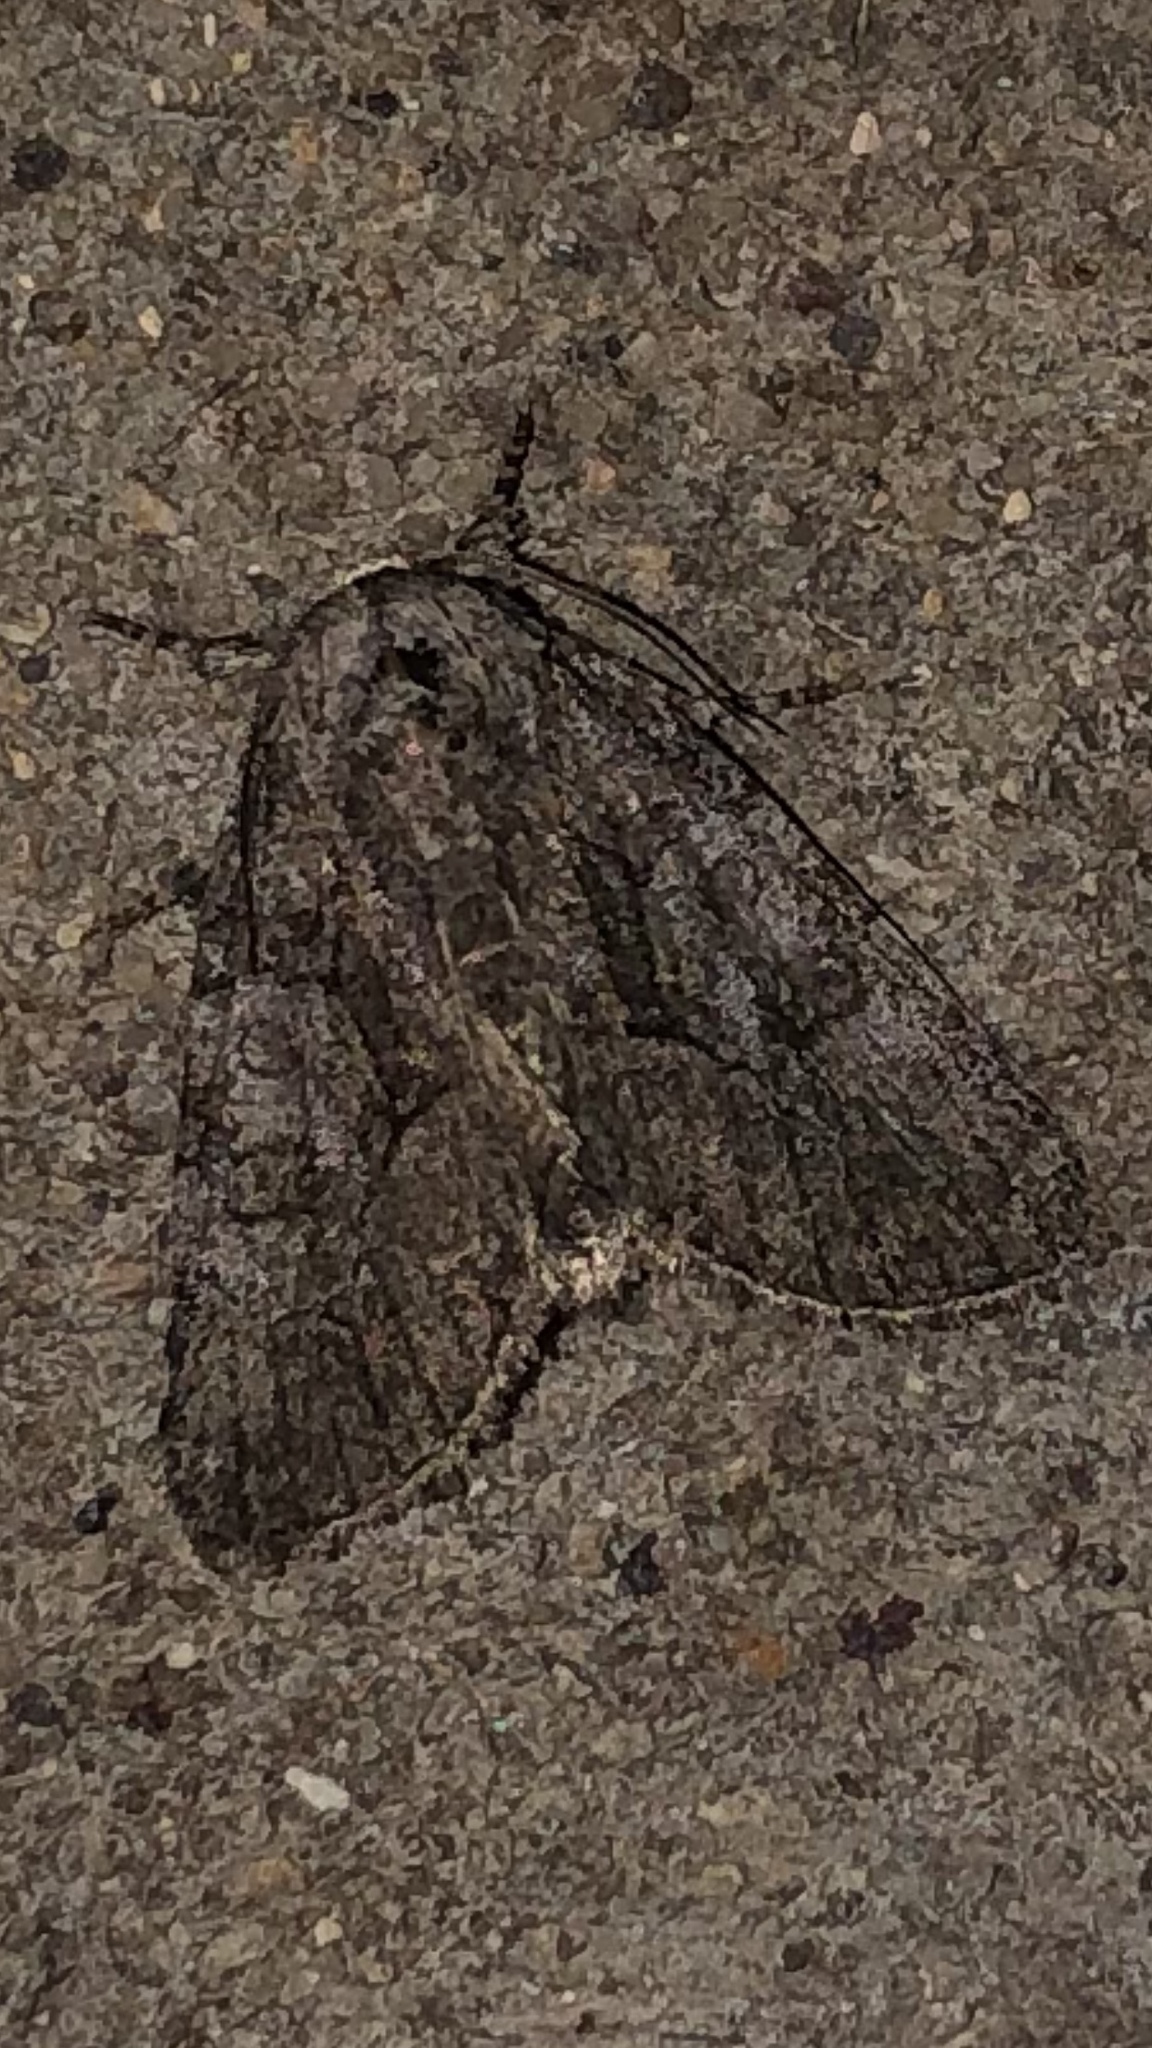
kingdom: Animalia
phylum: Arthropoda
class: Insecta
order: Lepidoptera
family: Noctuidae
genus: Raphia
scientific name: Raphia frater
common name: Brother
